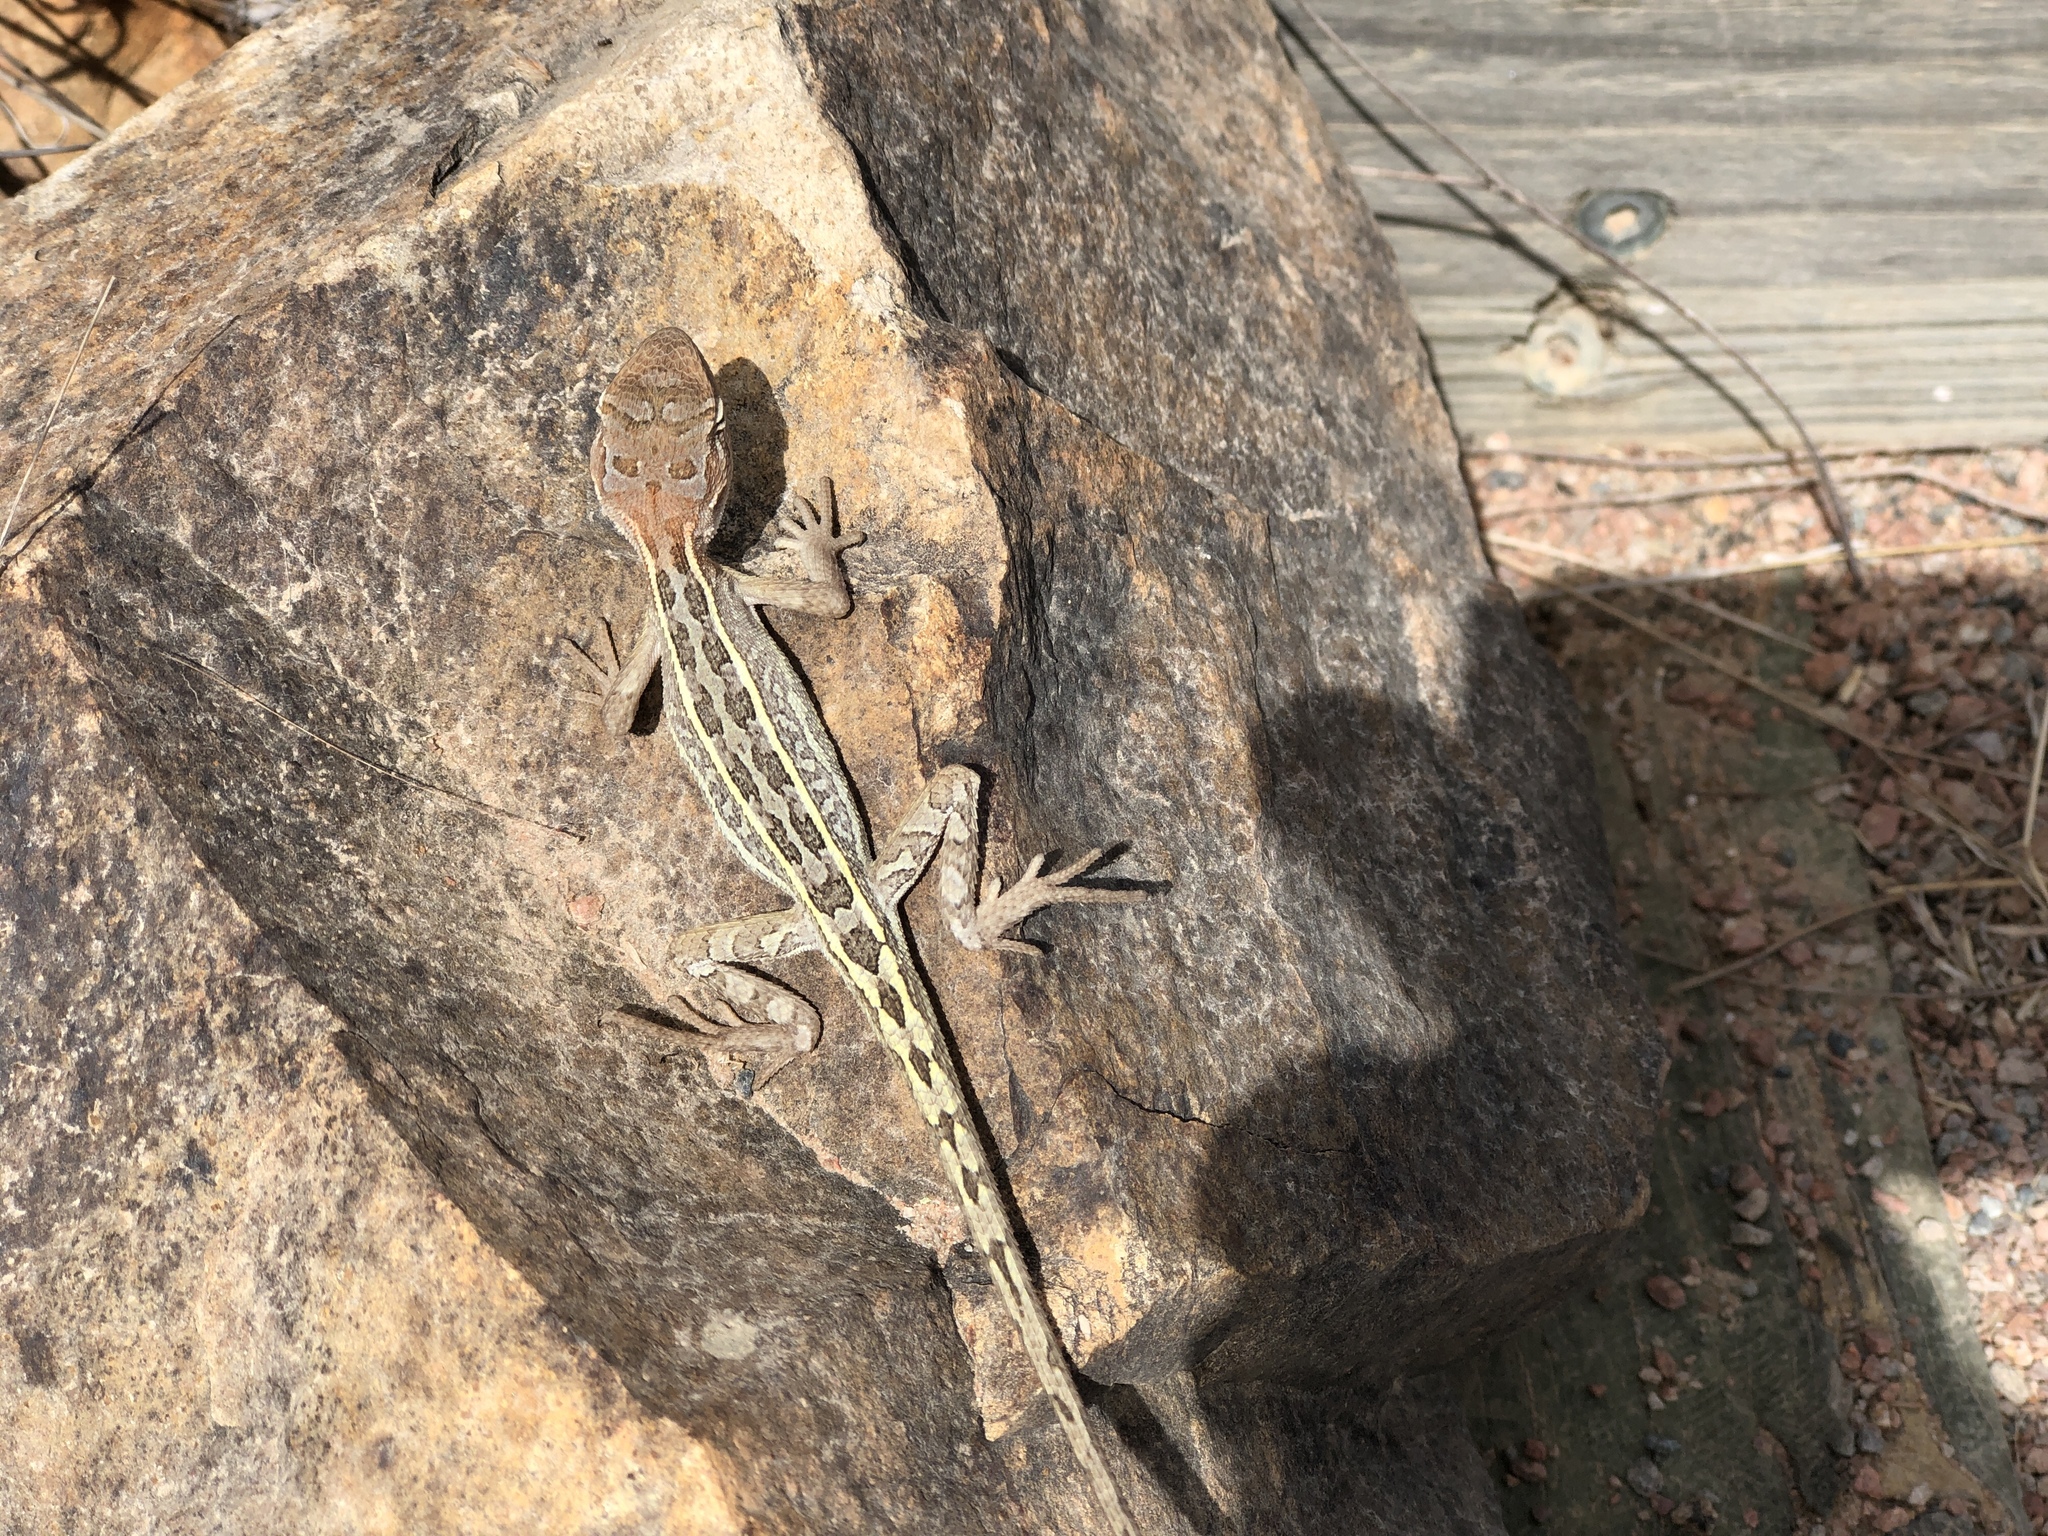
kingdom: Animalia
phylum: Chordata
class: Squamata
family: Agamidae
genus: Diporiphora
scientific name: Diporiphora australis
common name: Eastern two-line dragon
